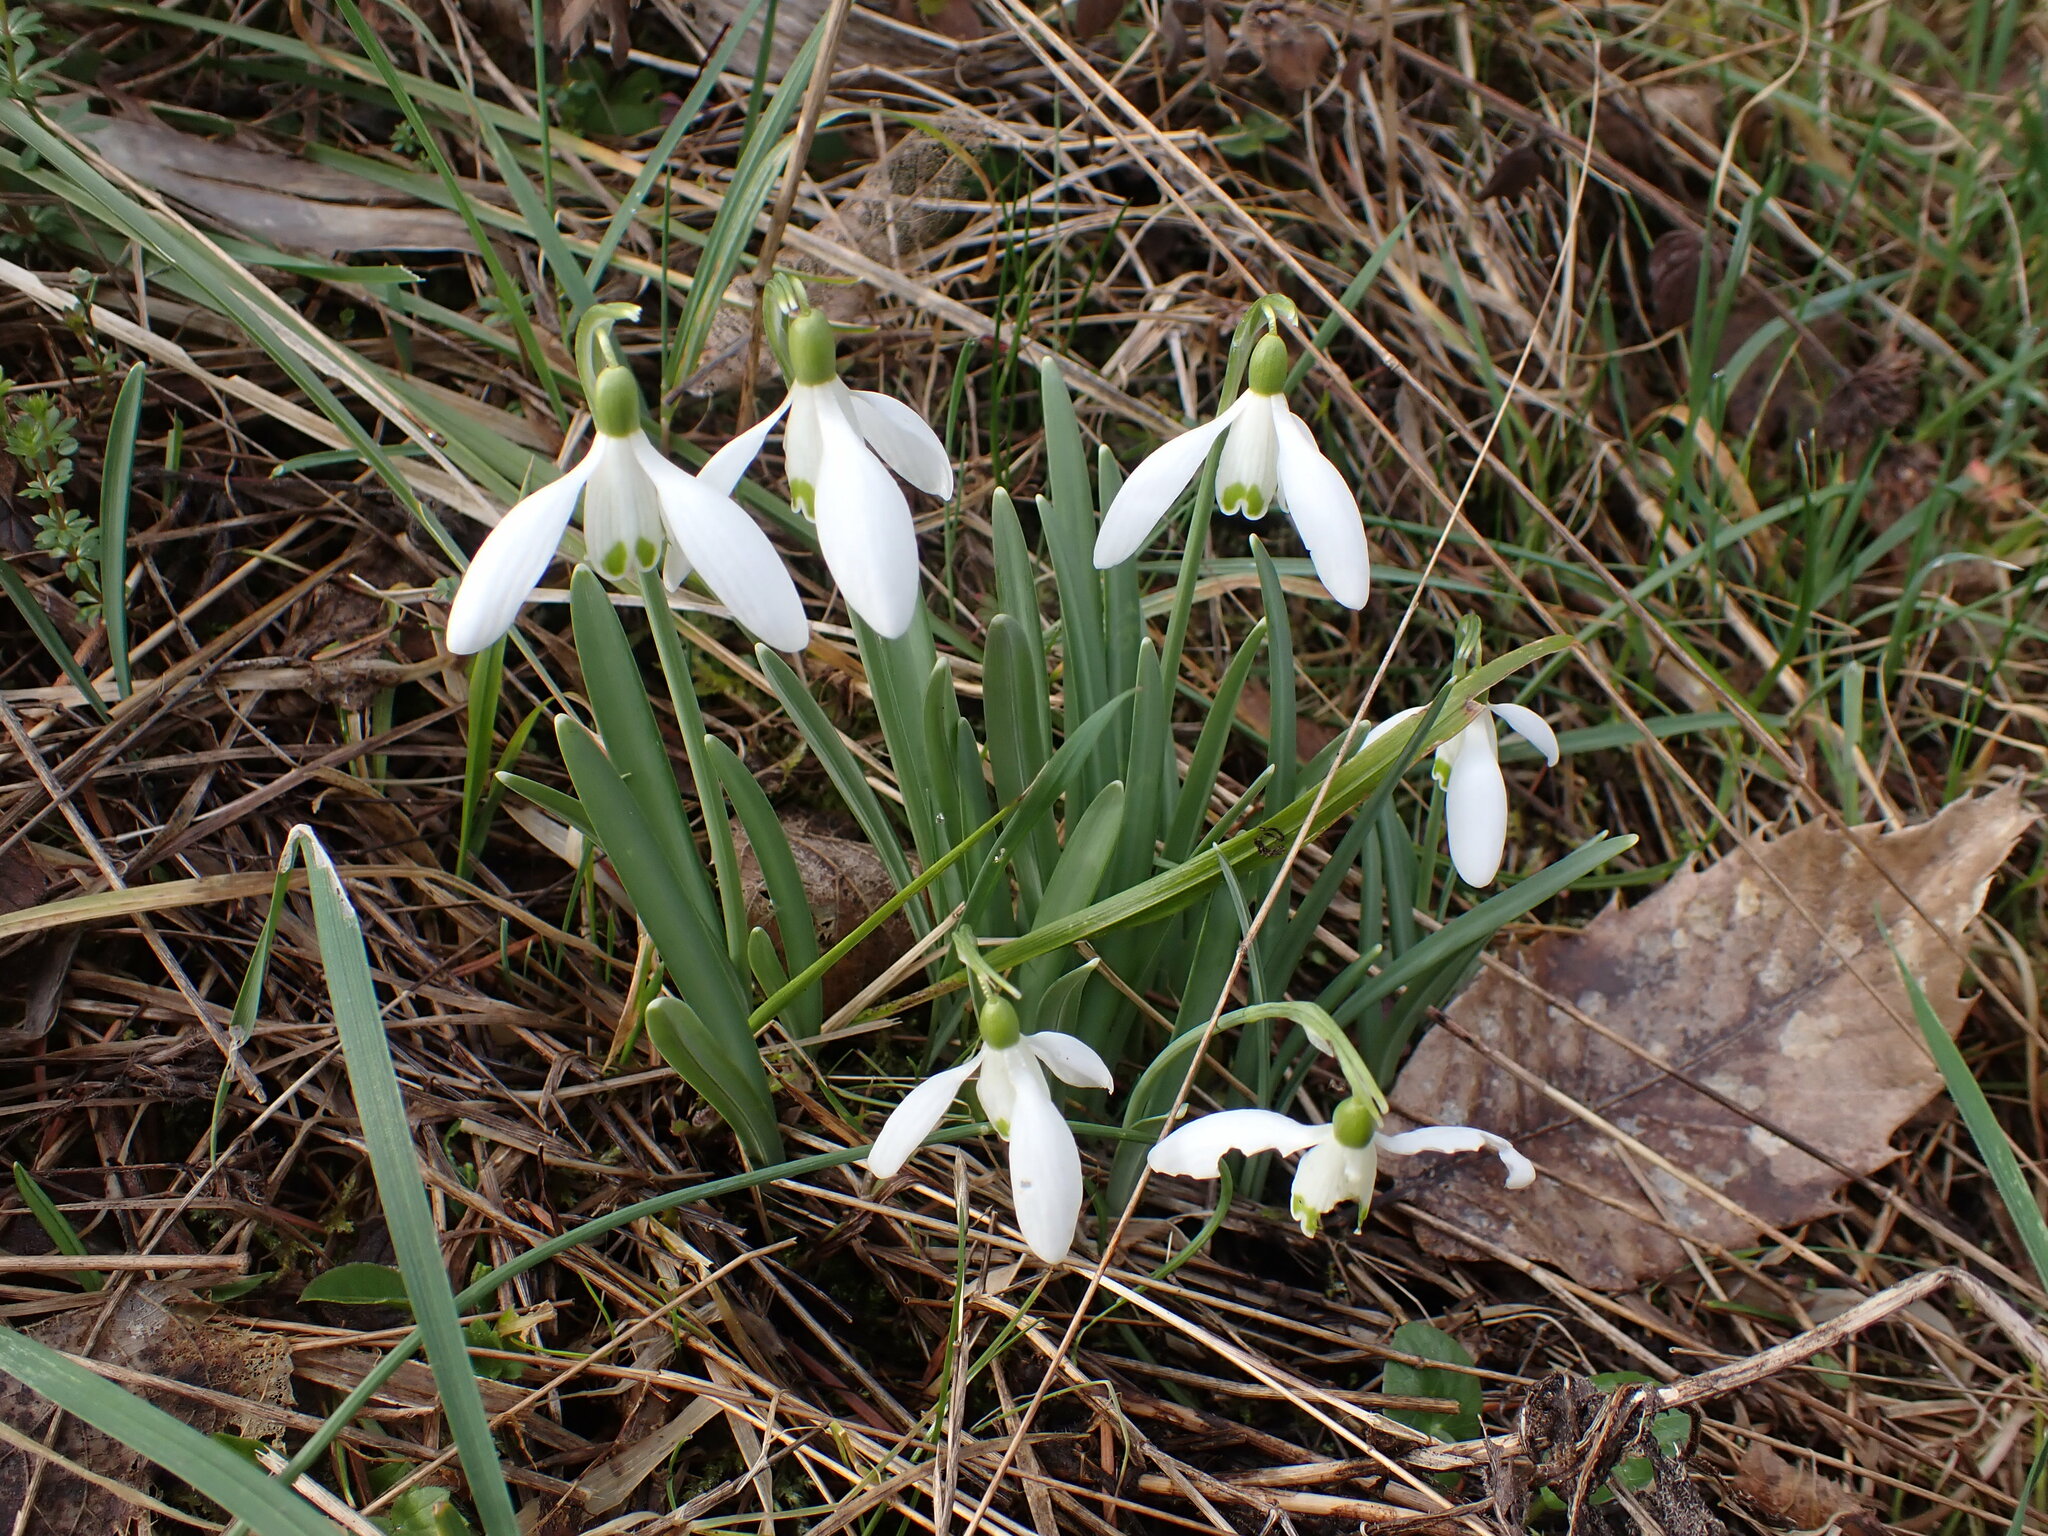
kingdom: Plantae
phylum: Tracheophyta
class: Liliopsida
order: Asparagales
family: Amaryllidaceae
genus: Galanthus
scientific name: Galanthus nivalis
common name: Snowdrop
